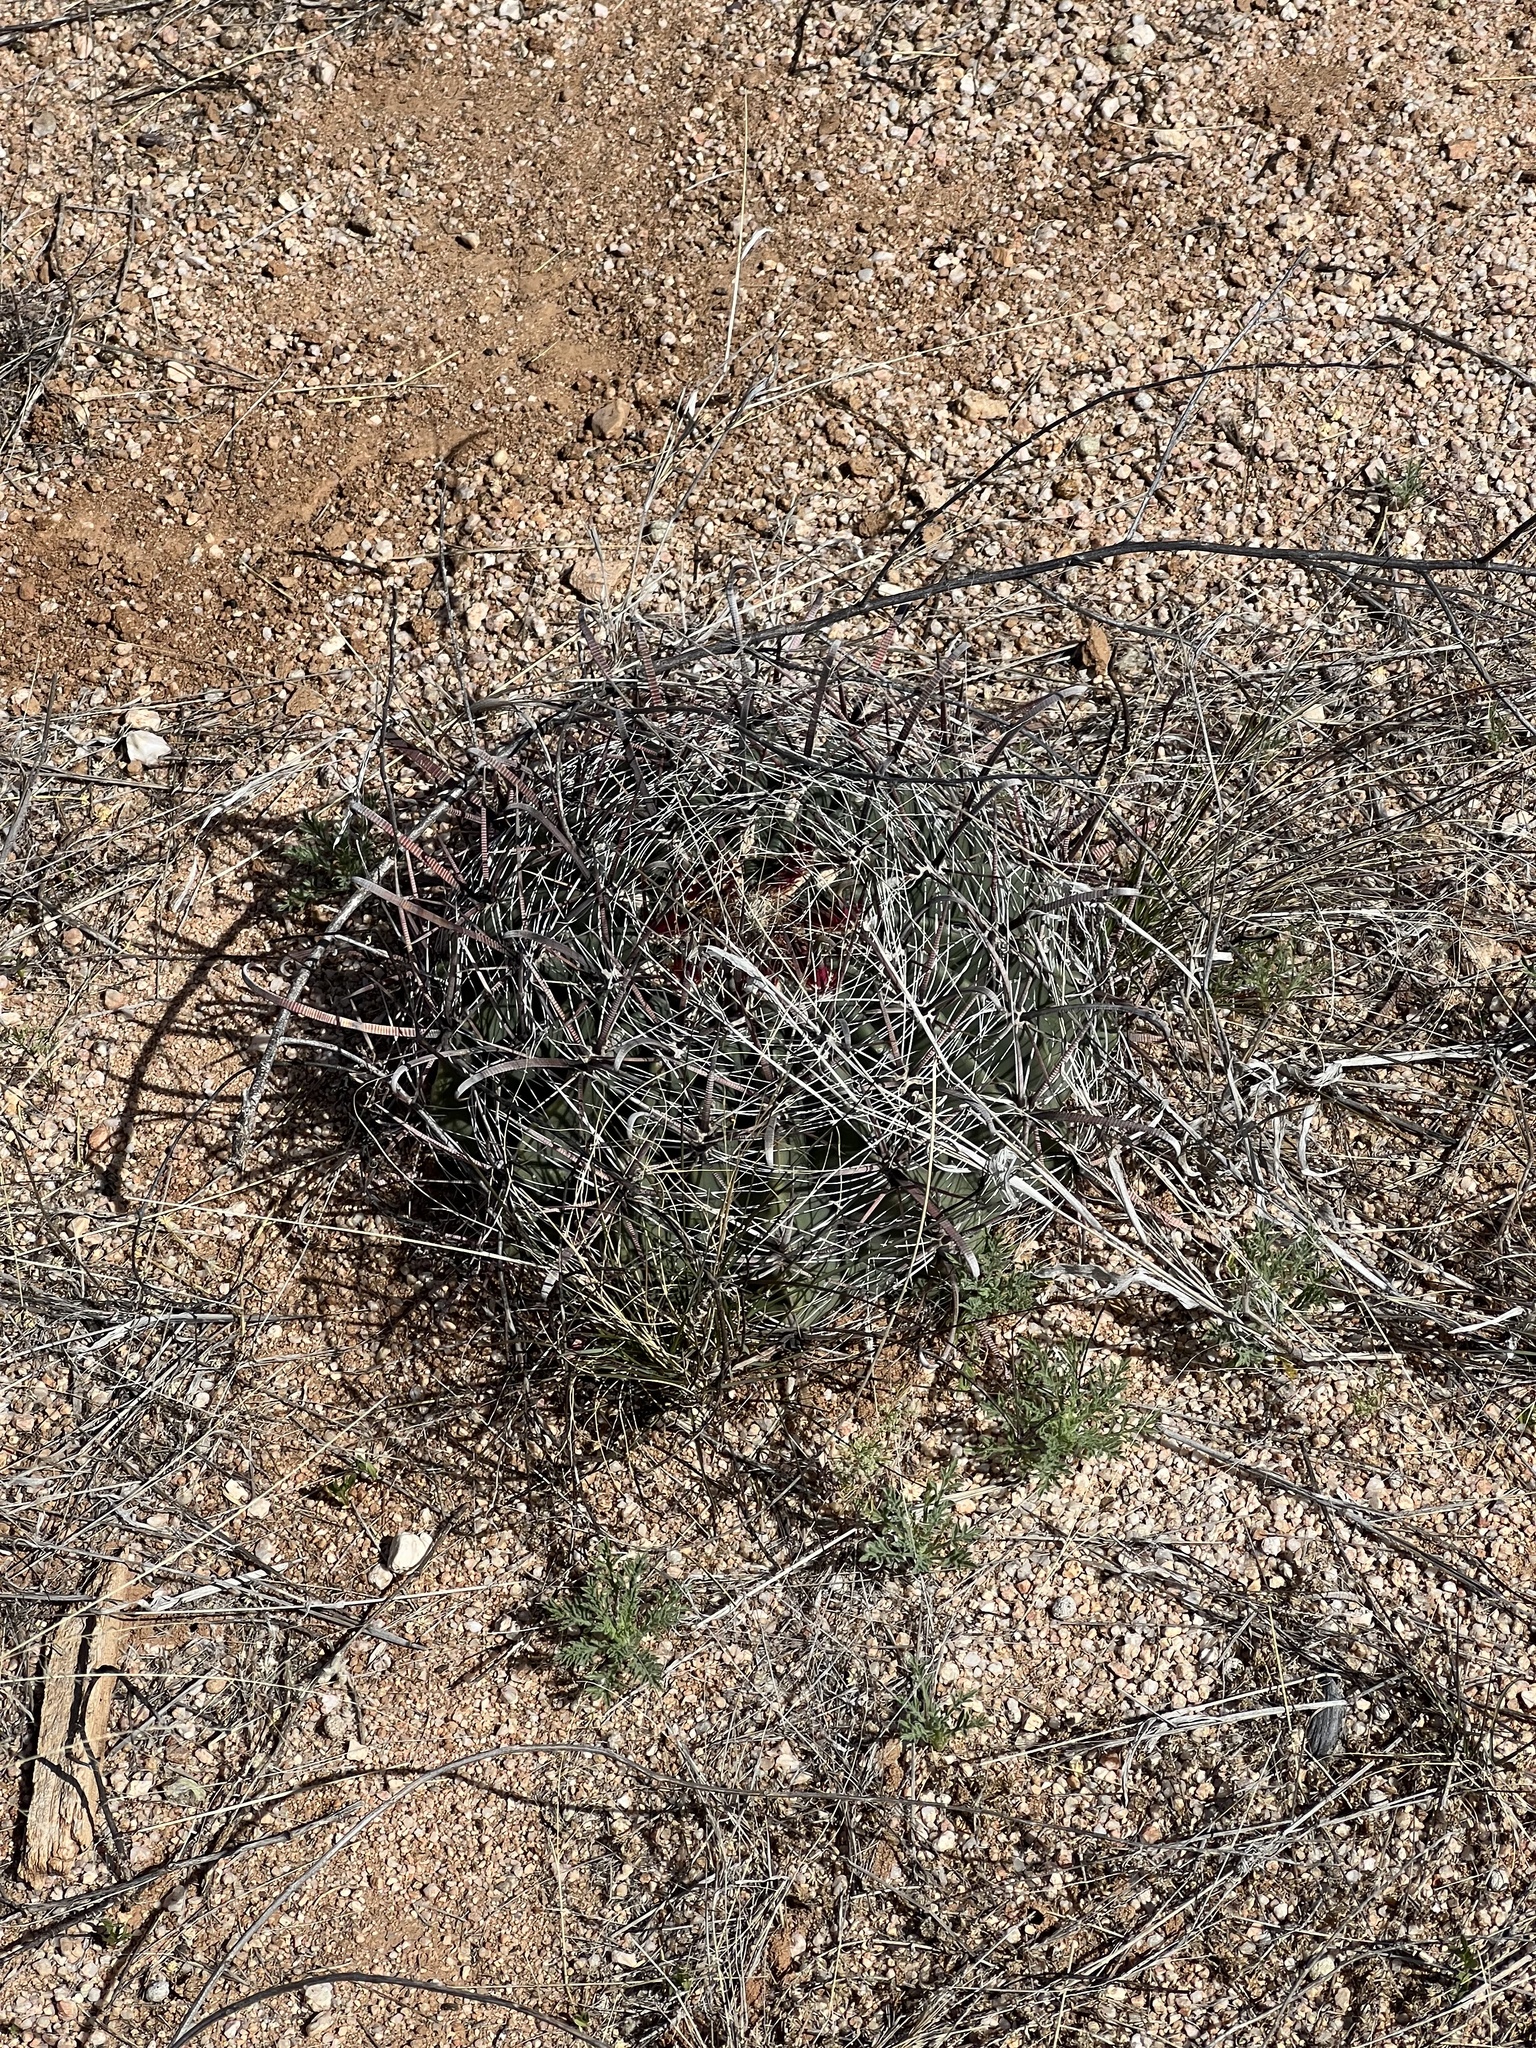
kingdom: Plantae
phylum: Tracheophyta
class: Magnoliopsida
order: Caryophyllales
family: Cactaceae
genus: Ferocactus
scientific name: Ferocactus wislizeni
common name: Candy barrel cactus
